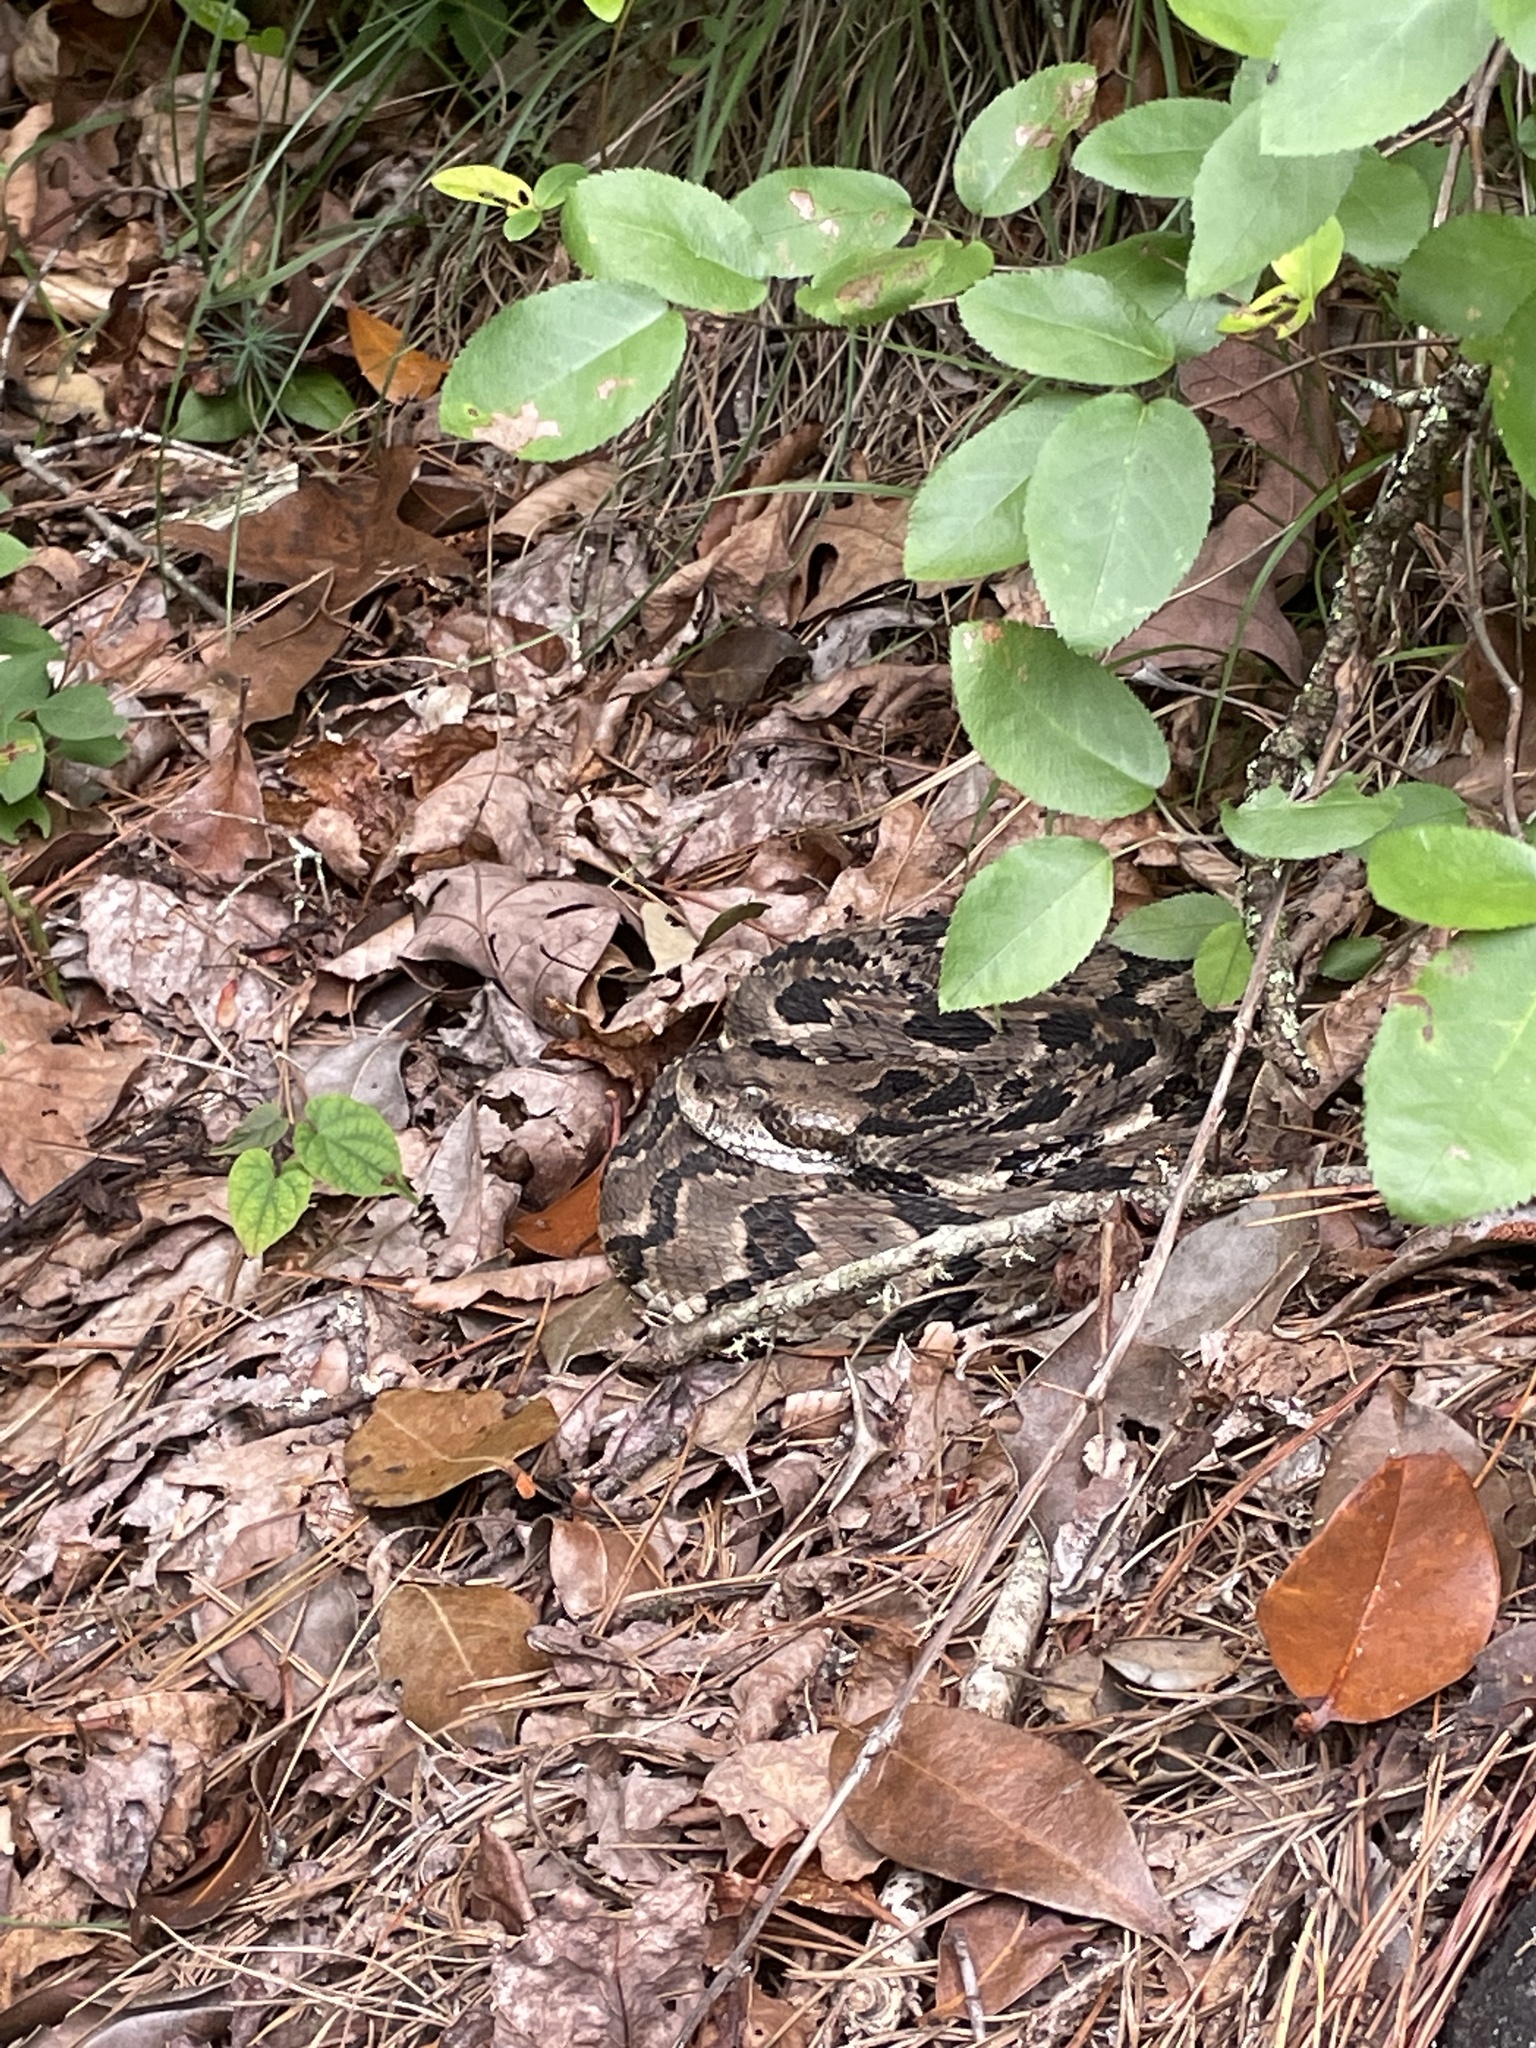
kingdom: Animalia
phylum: Chordata
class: Squamata
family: Viperidae
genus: Crotalus
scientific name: Crotalus horridus
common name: Timber rattlesnake
